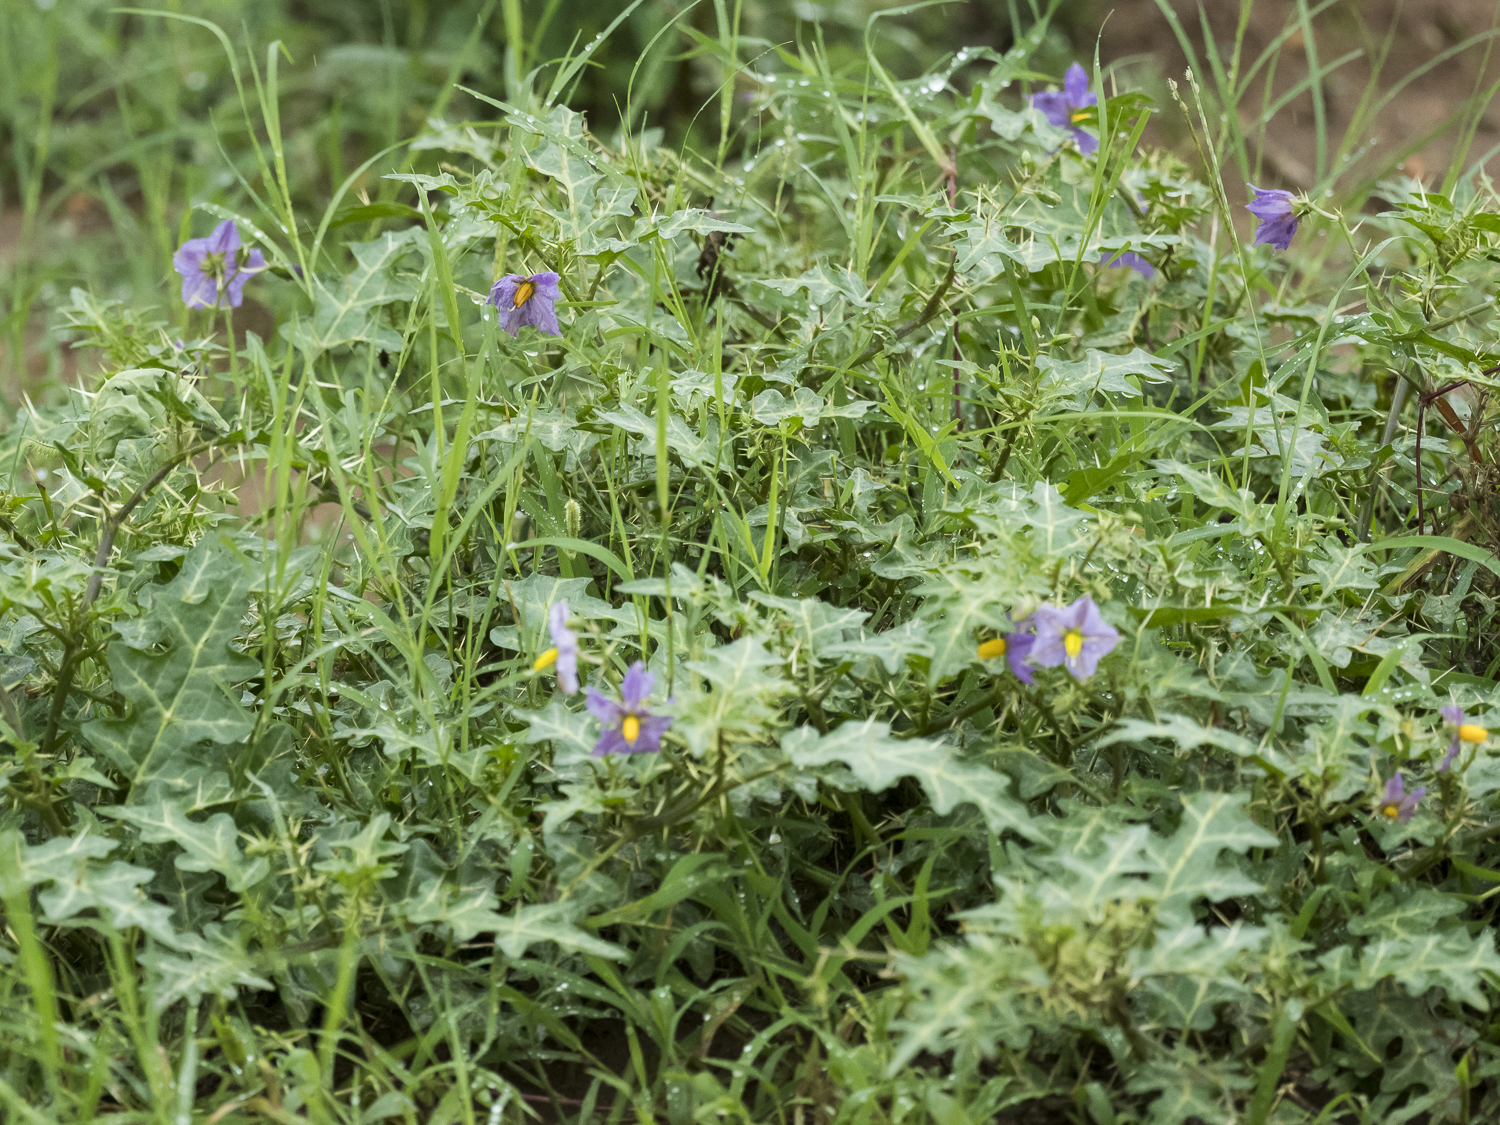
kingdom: Plantae
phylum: Tracheophyta
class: Magnoliopsida
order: Solanales
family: Solanaceae
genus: Solanum
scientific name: Solanum virginianum
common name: Surattense nightshade
